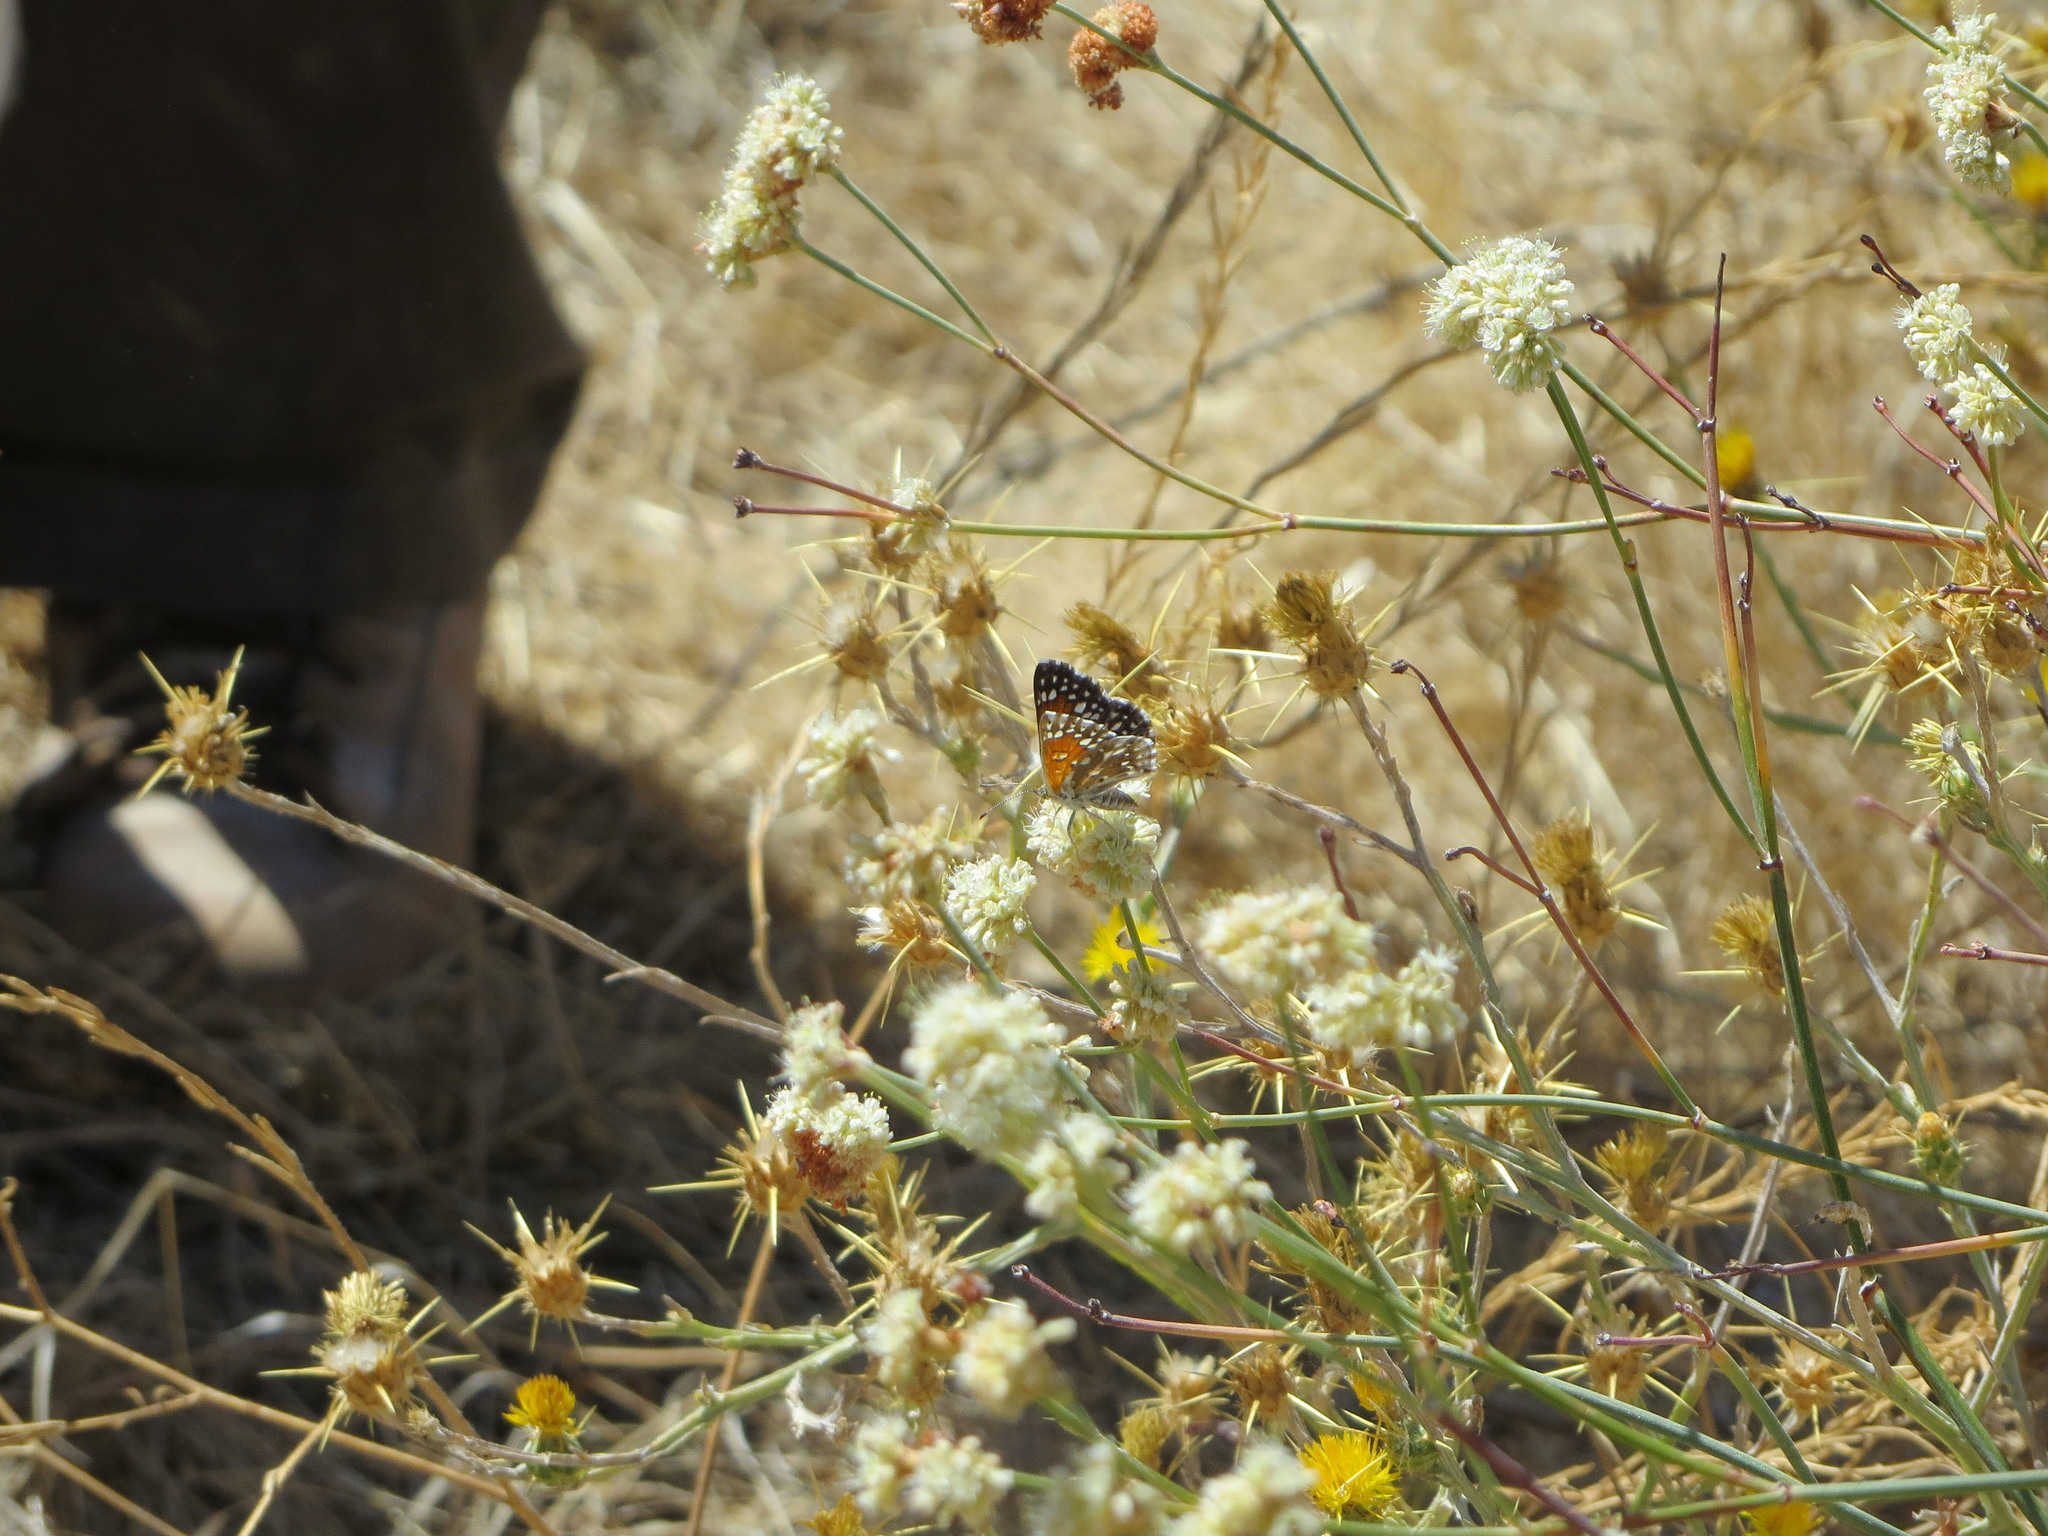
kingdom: Animalia
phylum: Arthropoda
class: Insecta
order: Lepidoptera
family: Riodinidae
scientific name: Riodinidae
